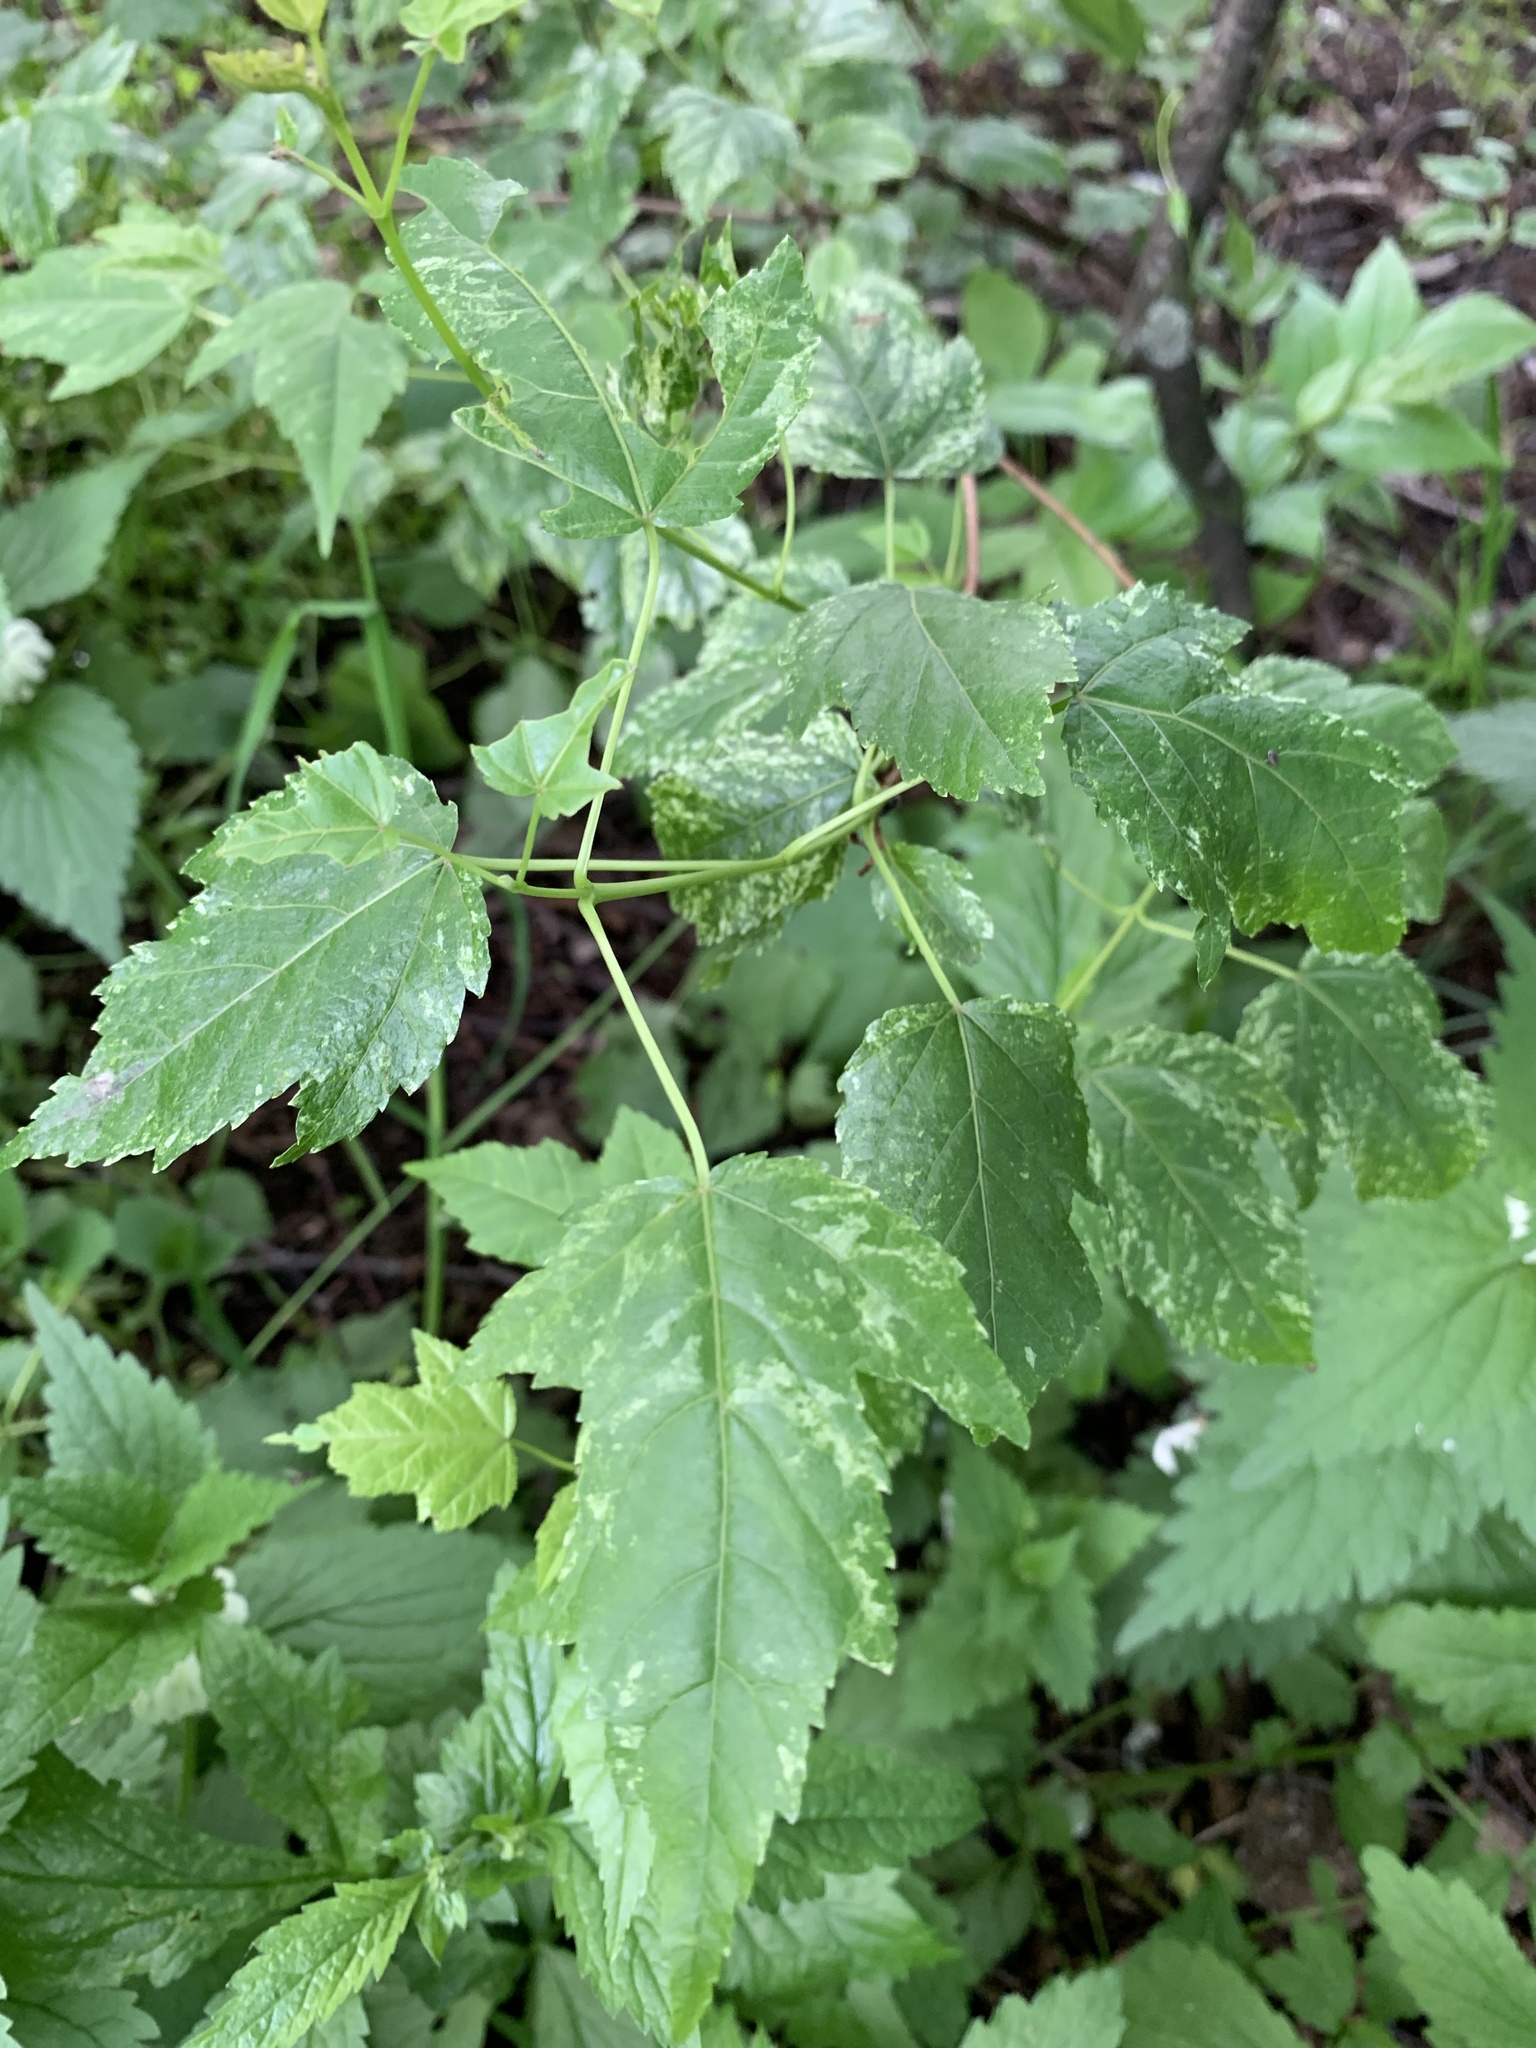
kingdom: Plantae
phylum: Tracheophyta
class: Magnoliopsida
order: Sapindales
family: Sapindaceae
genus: Acer
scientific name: Acer tataricum
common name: Tartar maple
